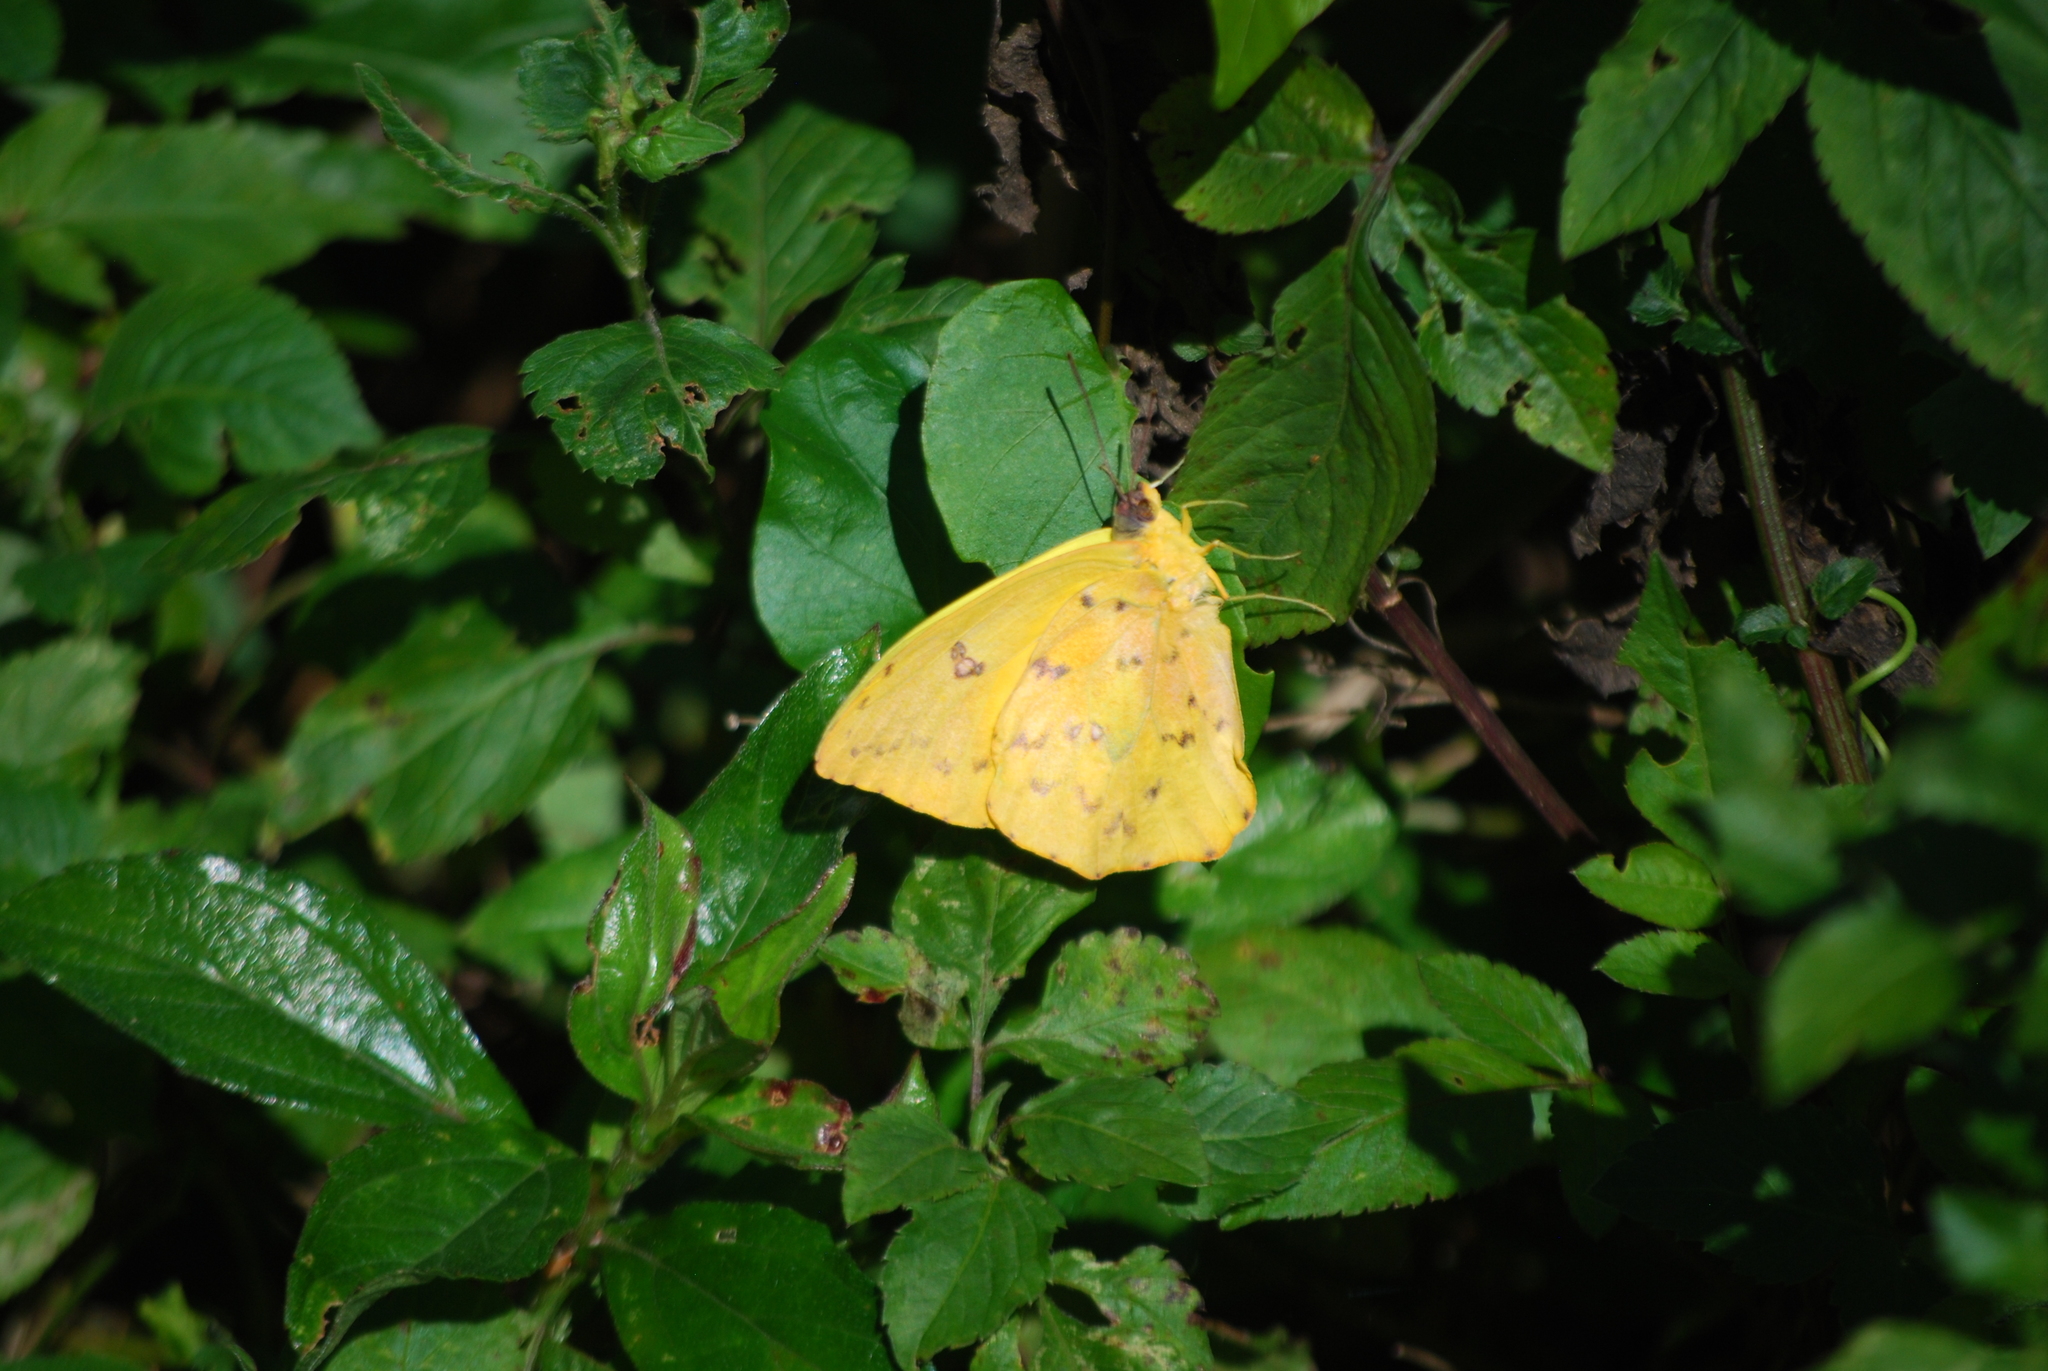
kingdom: Animalia
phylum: Arthropoda
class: Insecta
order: Lepidoptera
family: Pieridae
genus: Phoebis
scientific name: Phoebis philea
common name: Orange-barred giant sulphur
